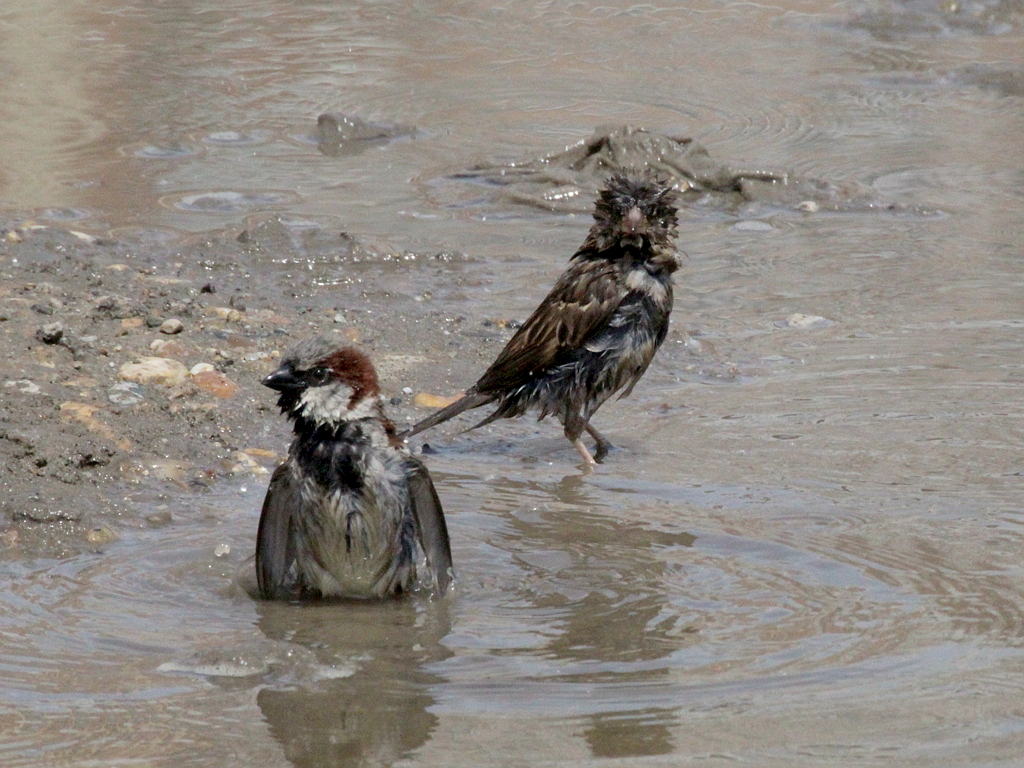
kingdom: Animalia
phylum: Chordata
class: Aves
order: Passeriformes
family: Passeridae
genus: Passer
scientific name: Passer domesticus
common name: House sparrow
